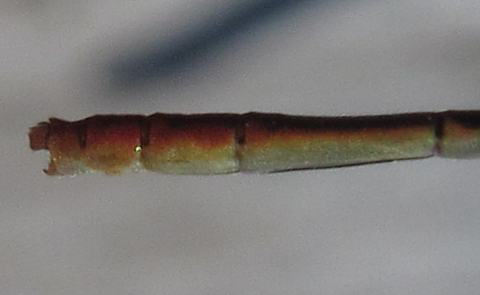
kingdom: Animalia
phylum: Arthropoda
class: Insecta
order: Odonata
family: Coenagrionidae
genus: Agriocnemis
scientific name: Agriocnemis ruberrima
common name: Orange wisp
